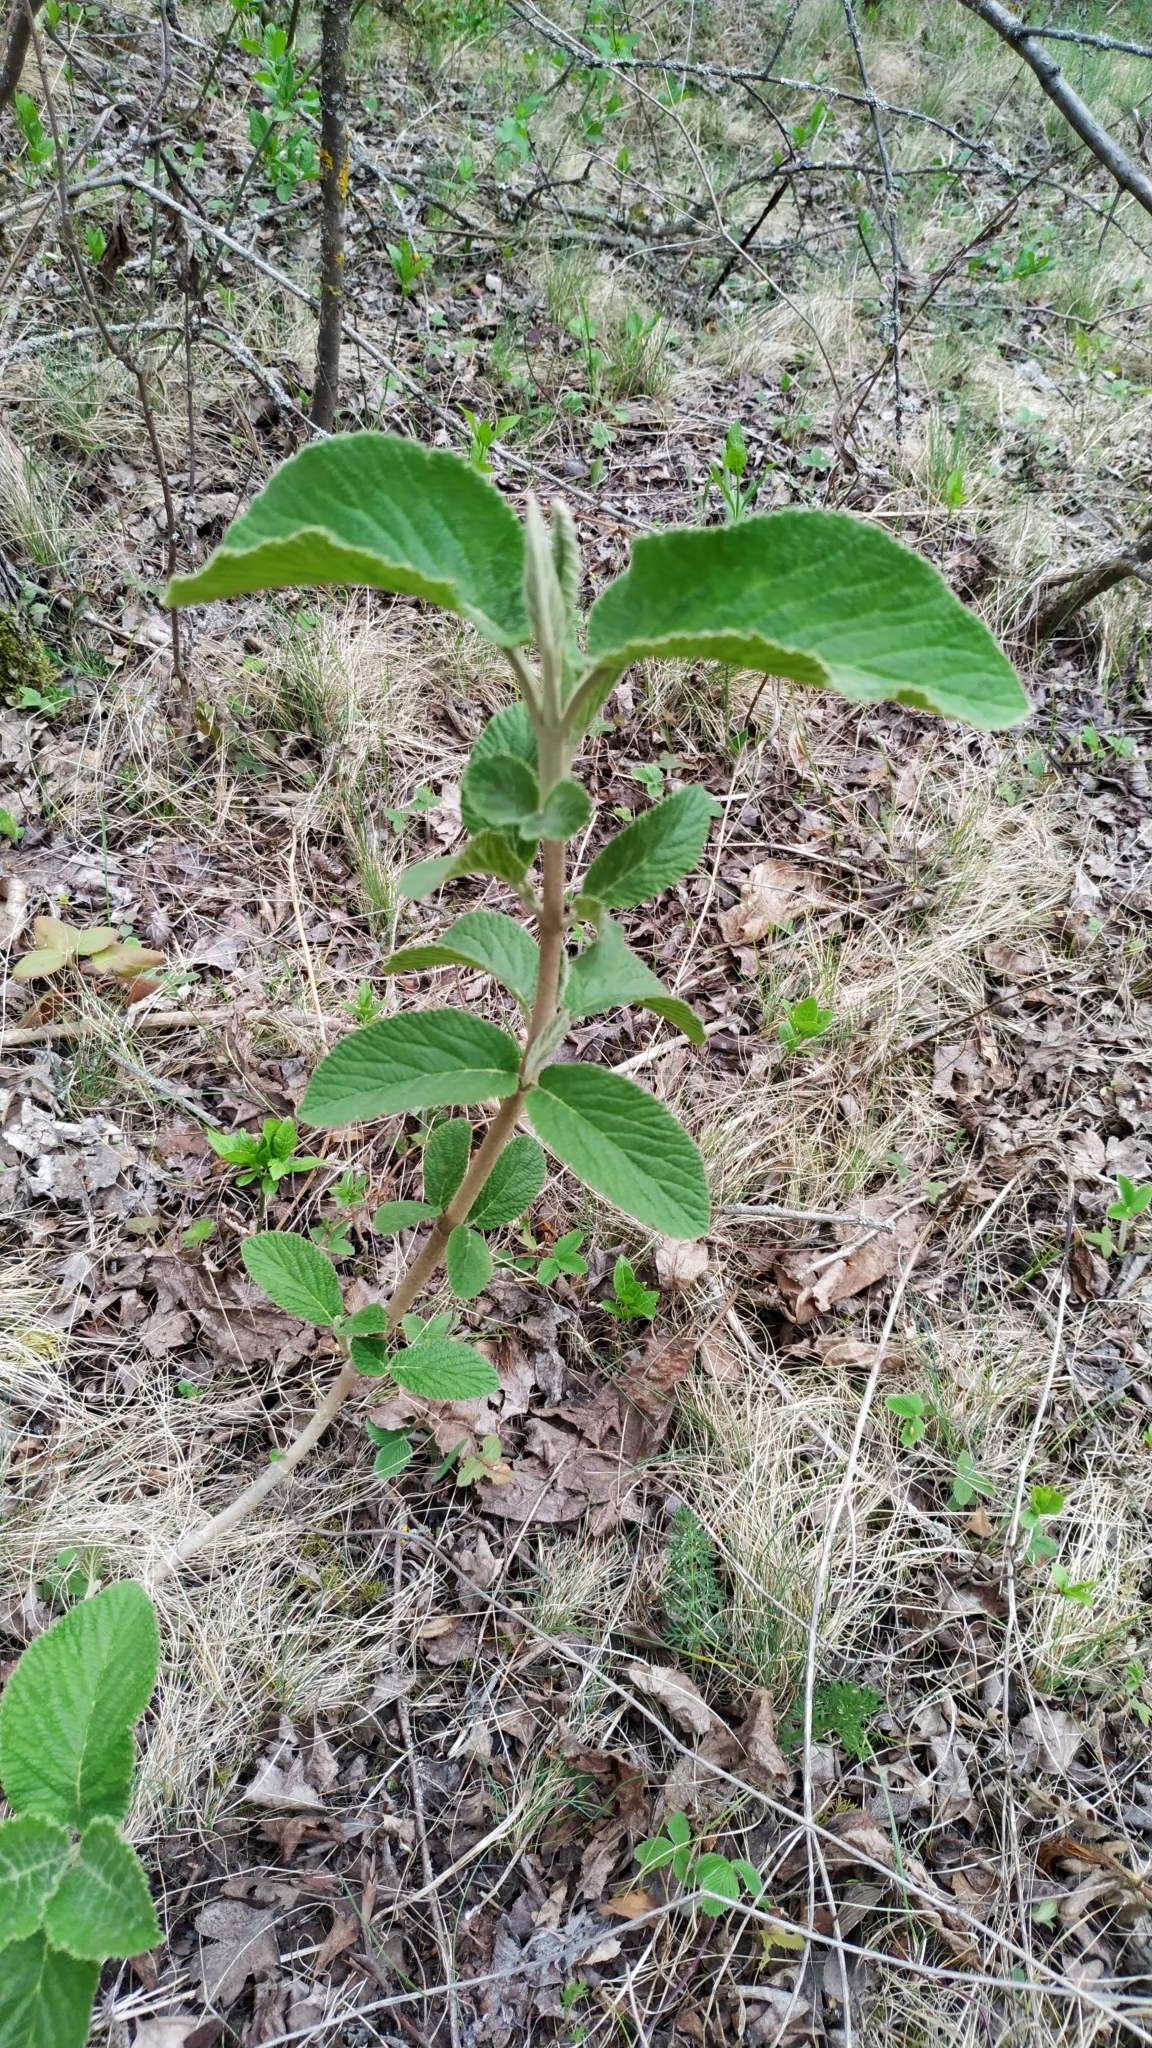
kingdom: Plantae
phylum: Tracheophyta
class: Magnoliopsida
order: Dipsacales
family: Viburnaceae
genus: Viburnum
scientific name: Viburnum lantana
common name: Wayfaring tree
